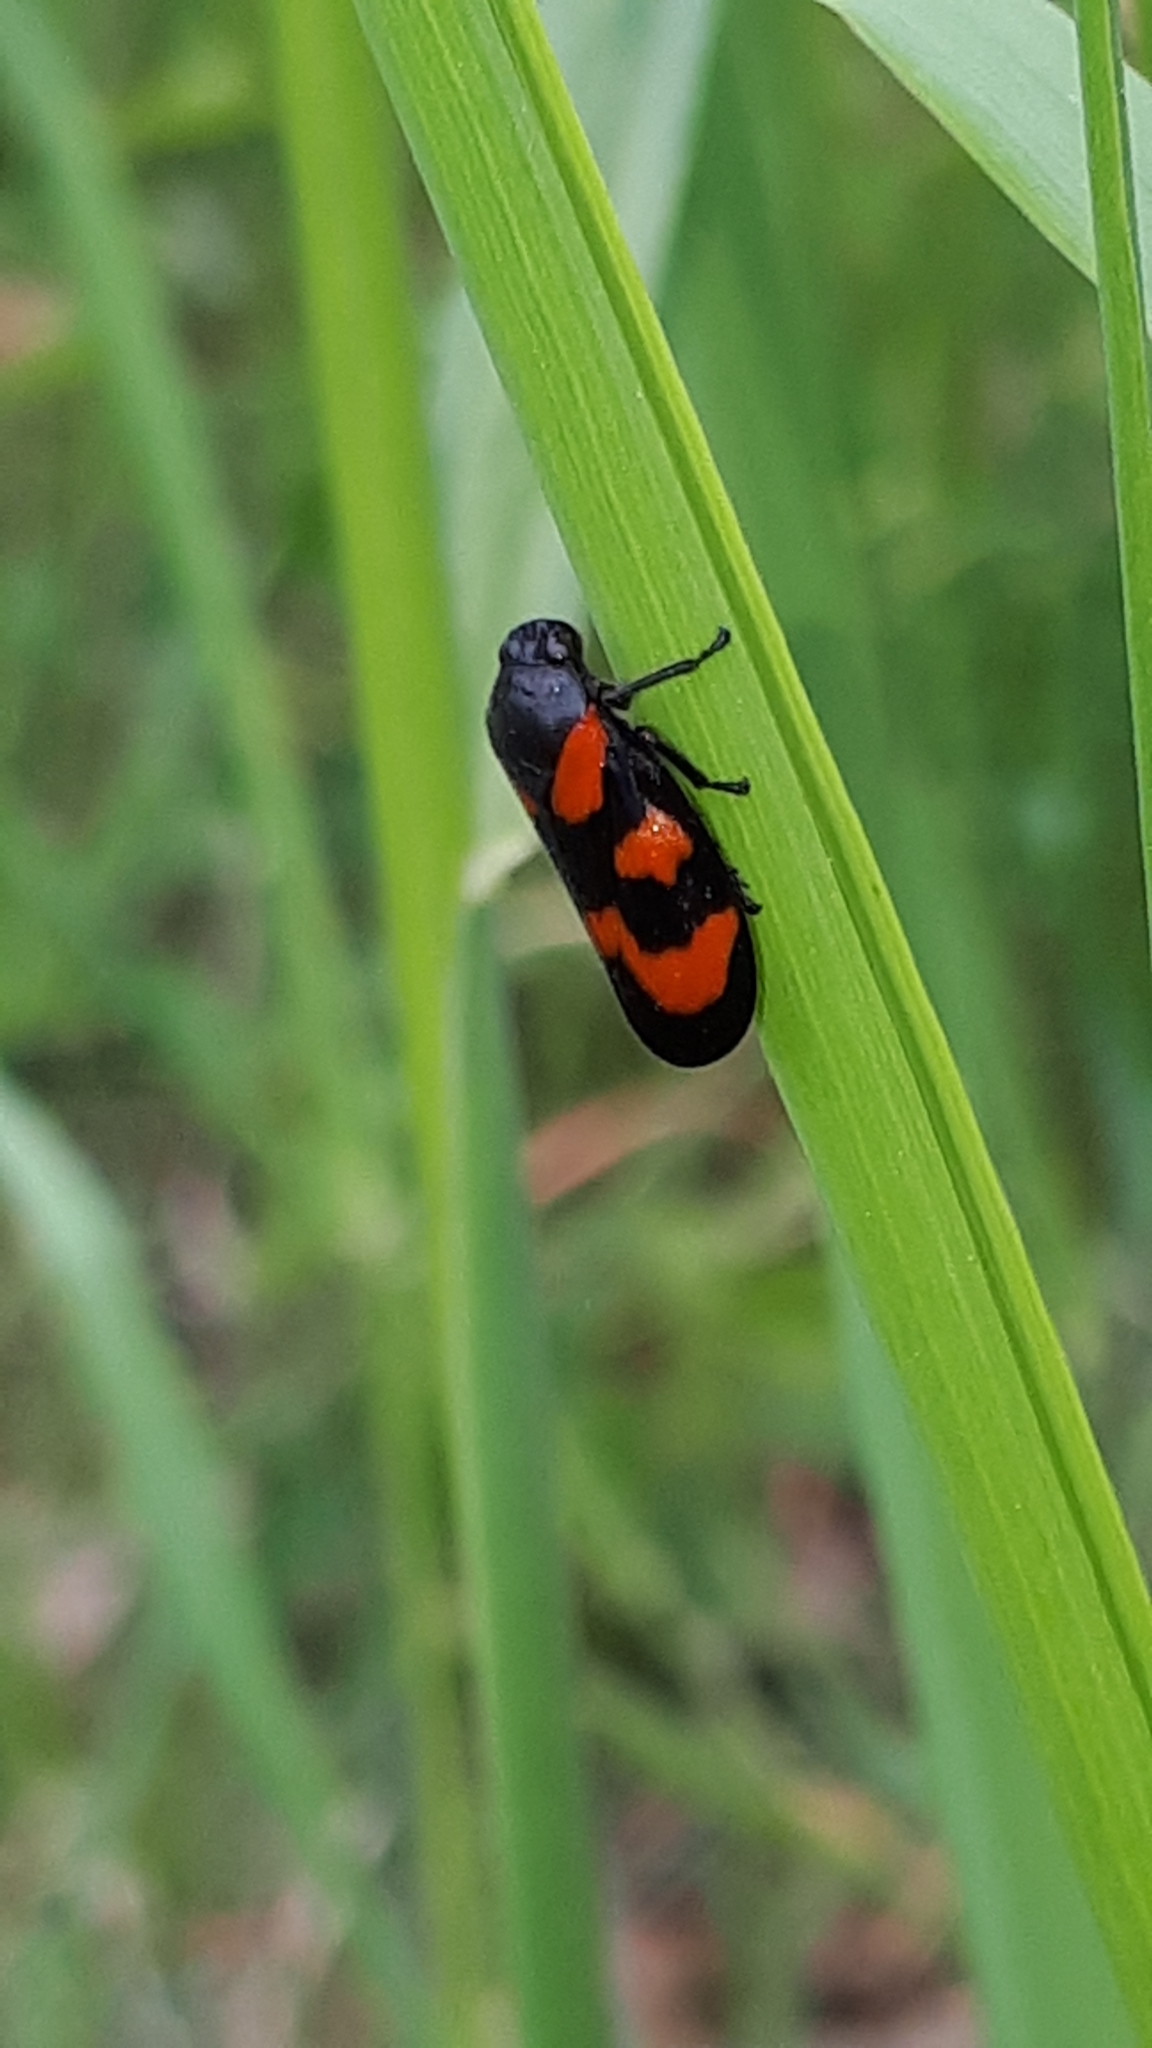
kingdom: Animalia
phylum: Arthropoda
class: Insecta
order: Hemiptera
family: Cercopidae
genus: Cercopis
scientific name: Cercopis vulnerata
